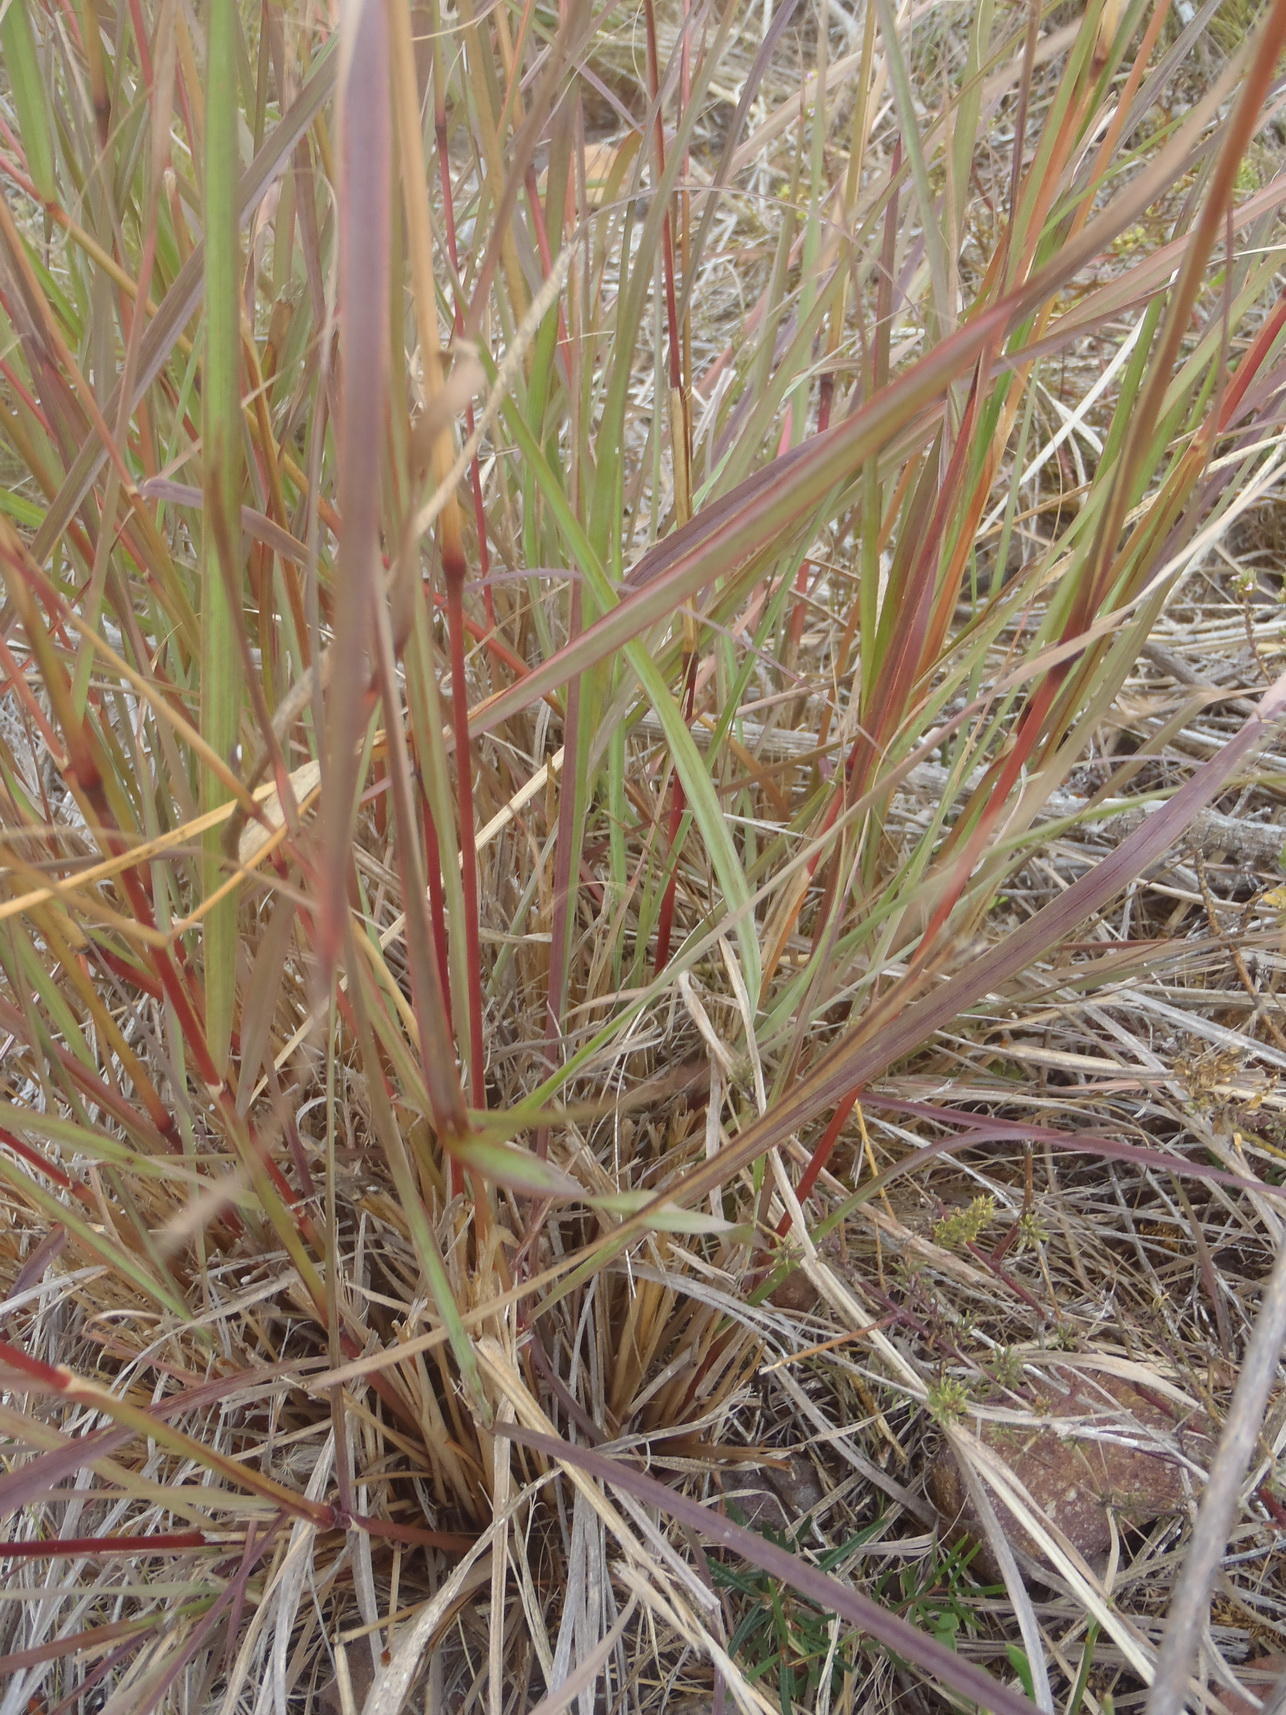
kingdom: Plantae
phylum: Tracheophyta
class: Liliopsida
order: Poales
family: Poaceae
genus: Cymbopogon
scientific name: Cymbopogon pospischilii
